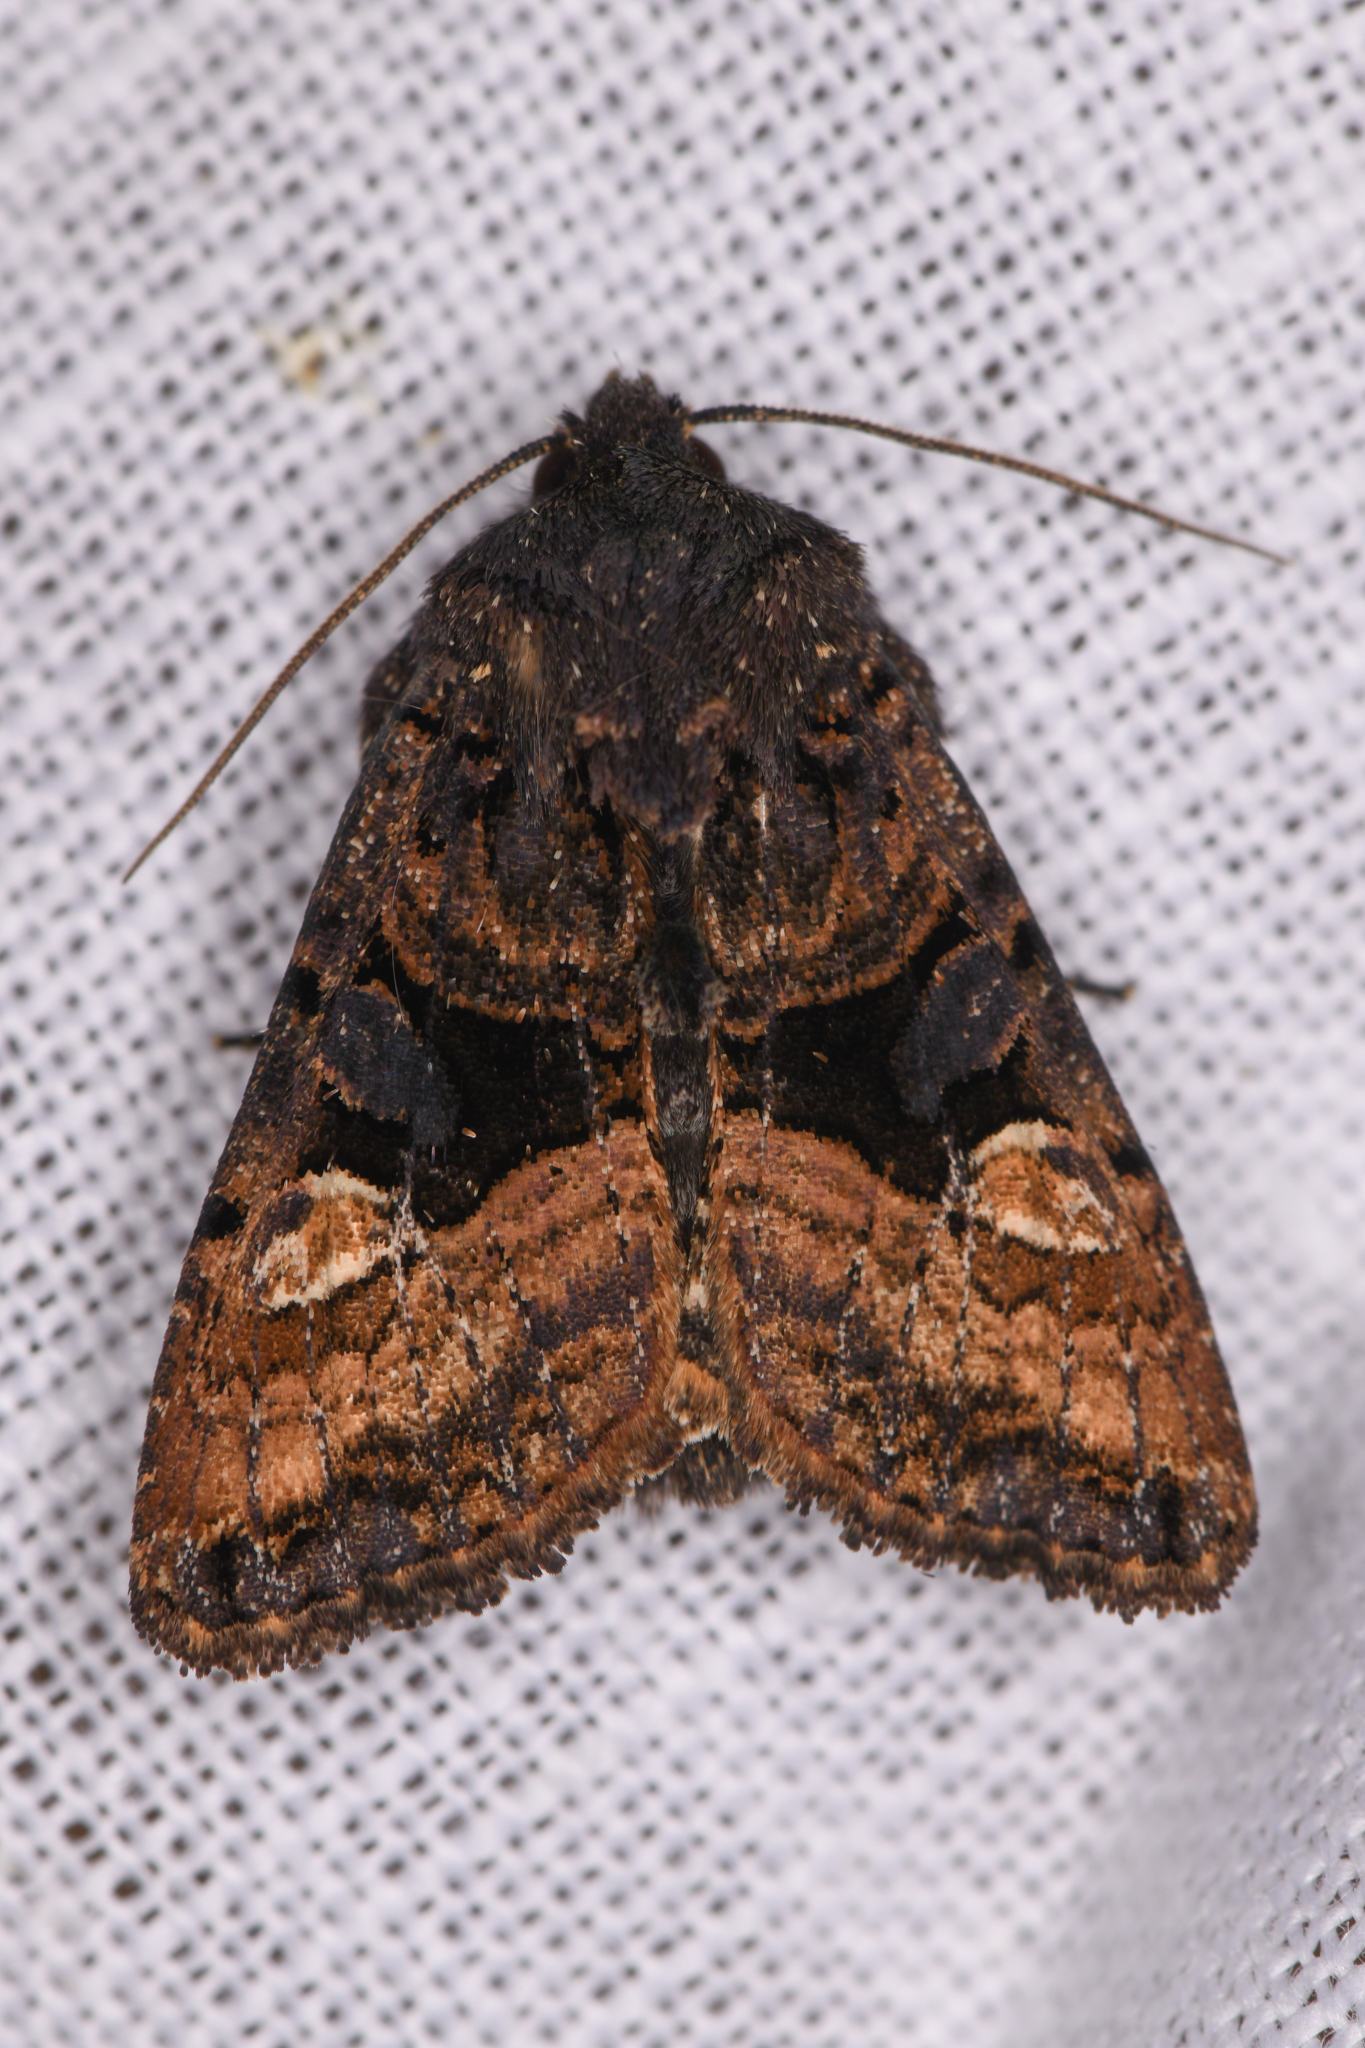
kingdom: Animalia
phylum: Arthropoda
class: Insecta
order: Lepidoptera
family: Noctuidae
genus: Euplexia
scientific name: Euplexia benesimilis
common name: American angle shades
